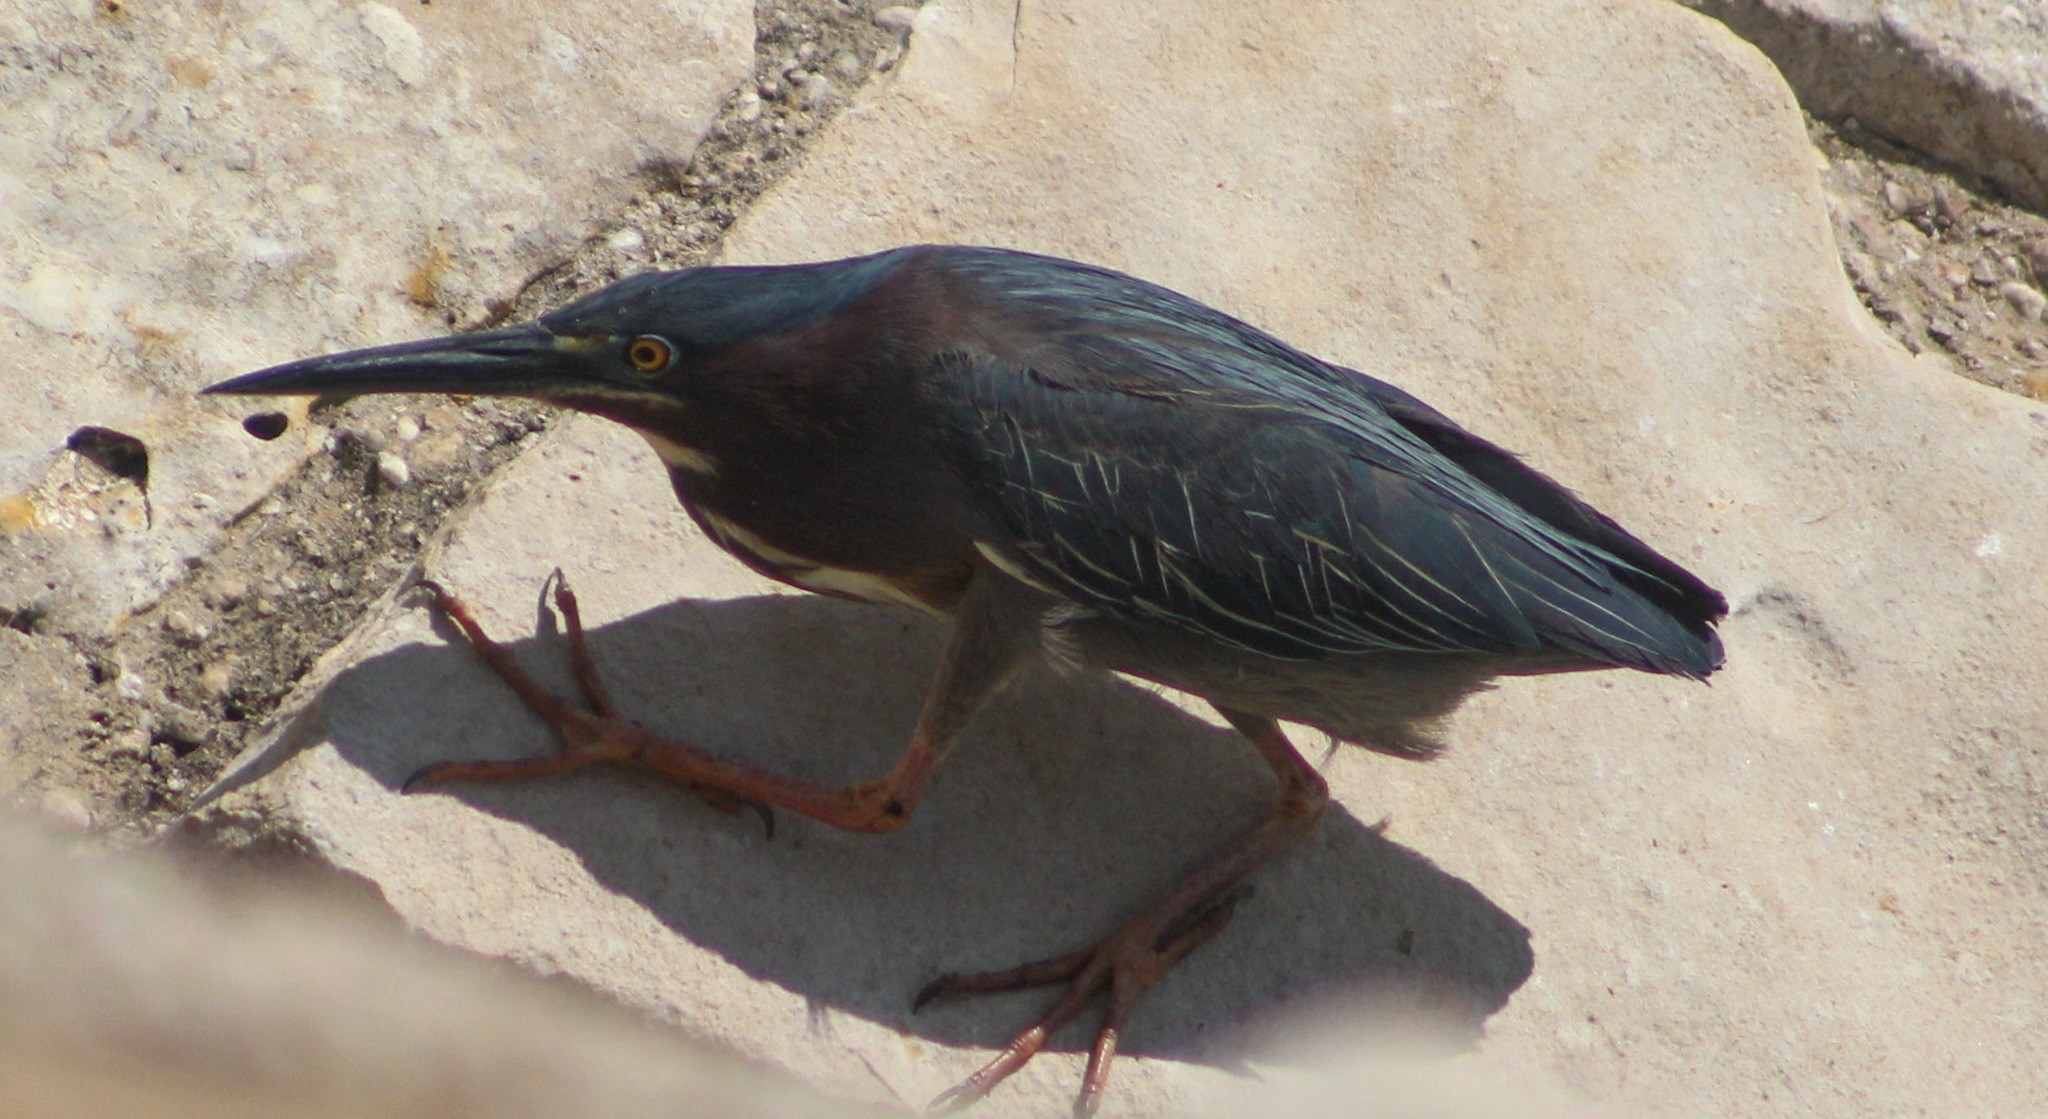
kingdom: Animalia
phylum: Chordata
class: Aves
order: Pelecaniformes
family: Ardeidae
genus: Butorides
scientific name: Butorides virescens
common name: Green heron
